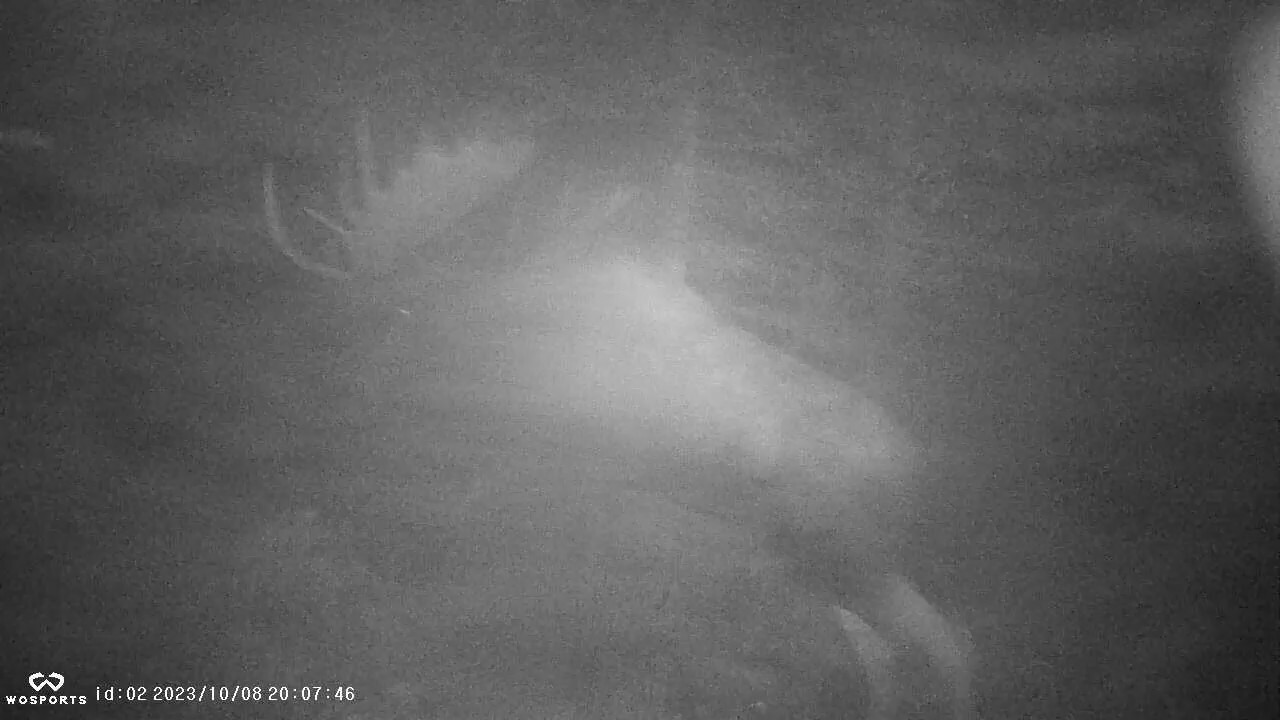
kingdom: Animalia
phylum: Chordata
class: Mammalia
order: Artiodactyla
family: Cervidae
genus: Alces
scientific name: Alces alces
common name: Moose
